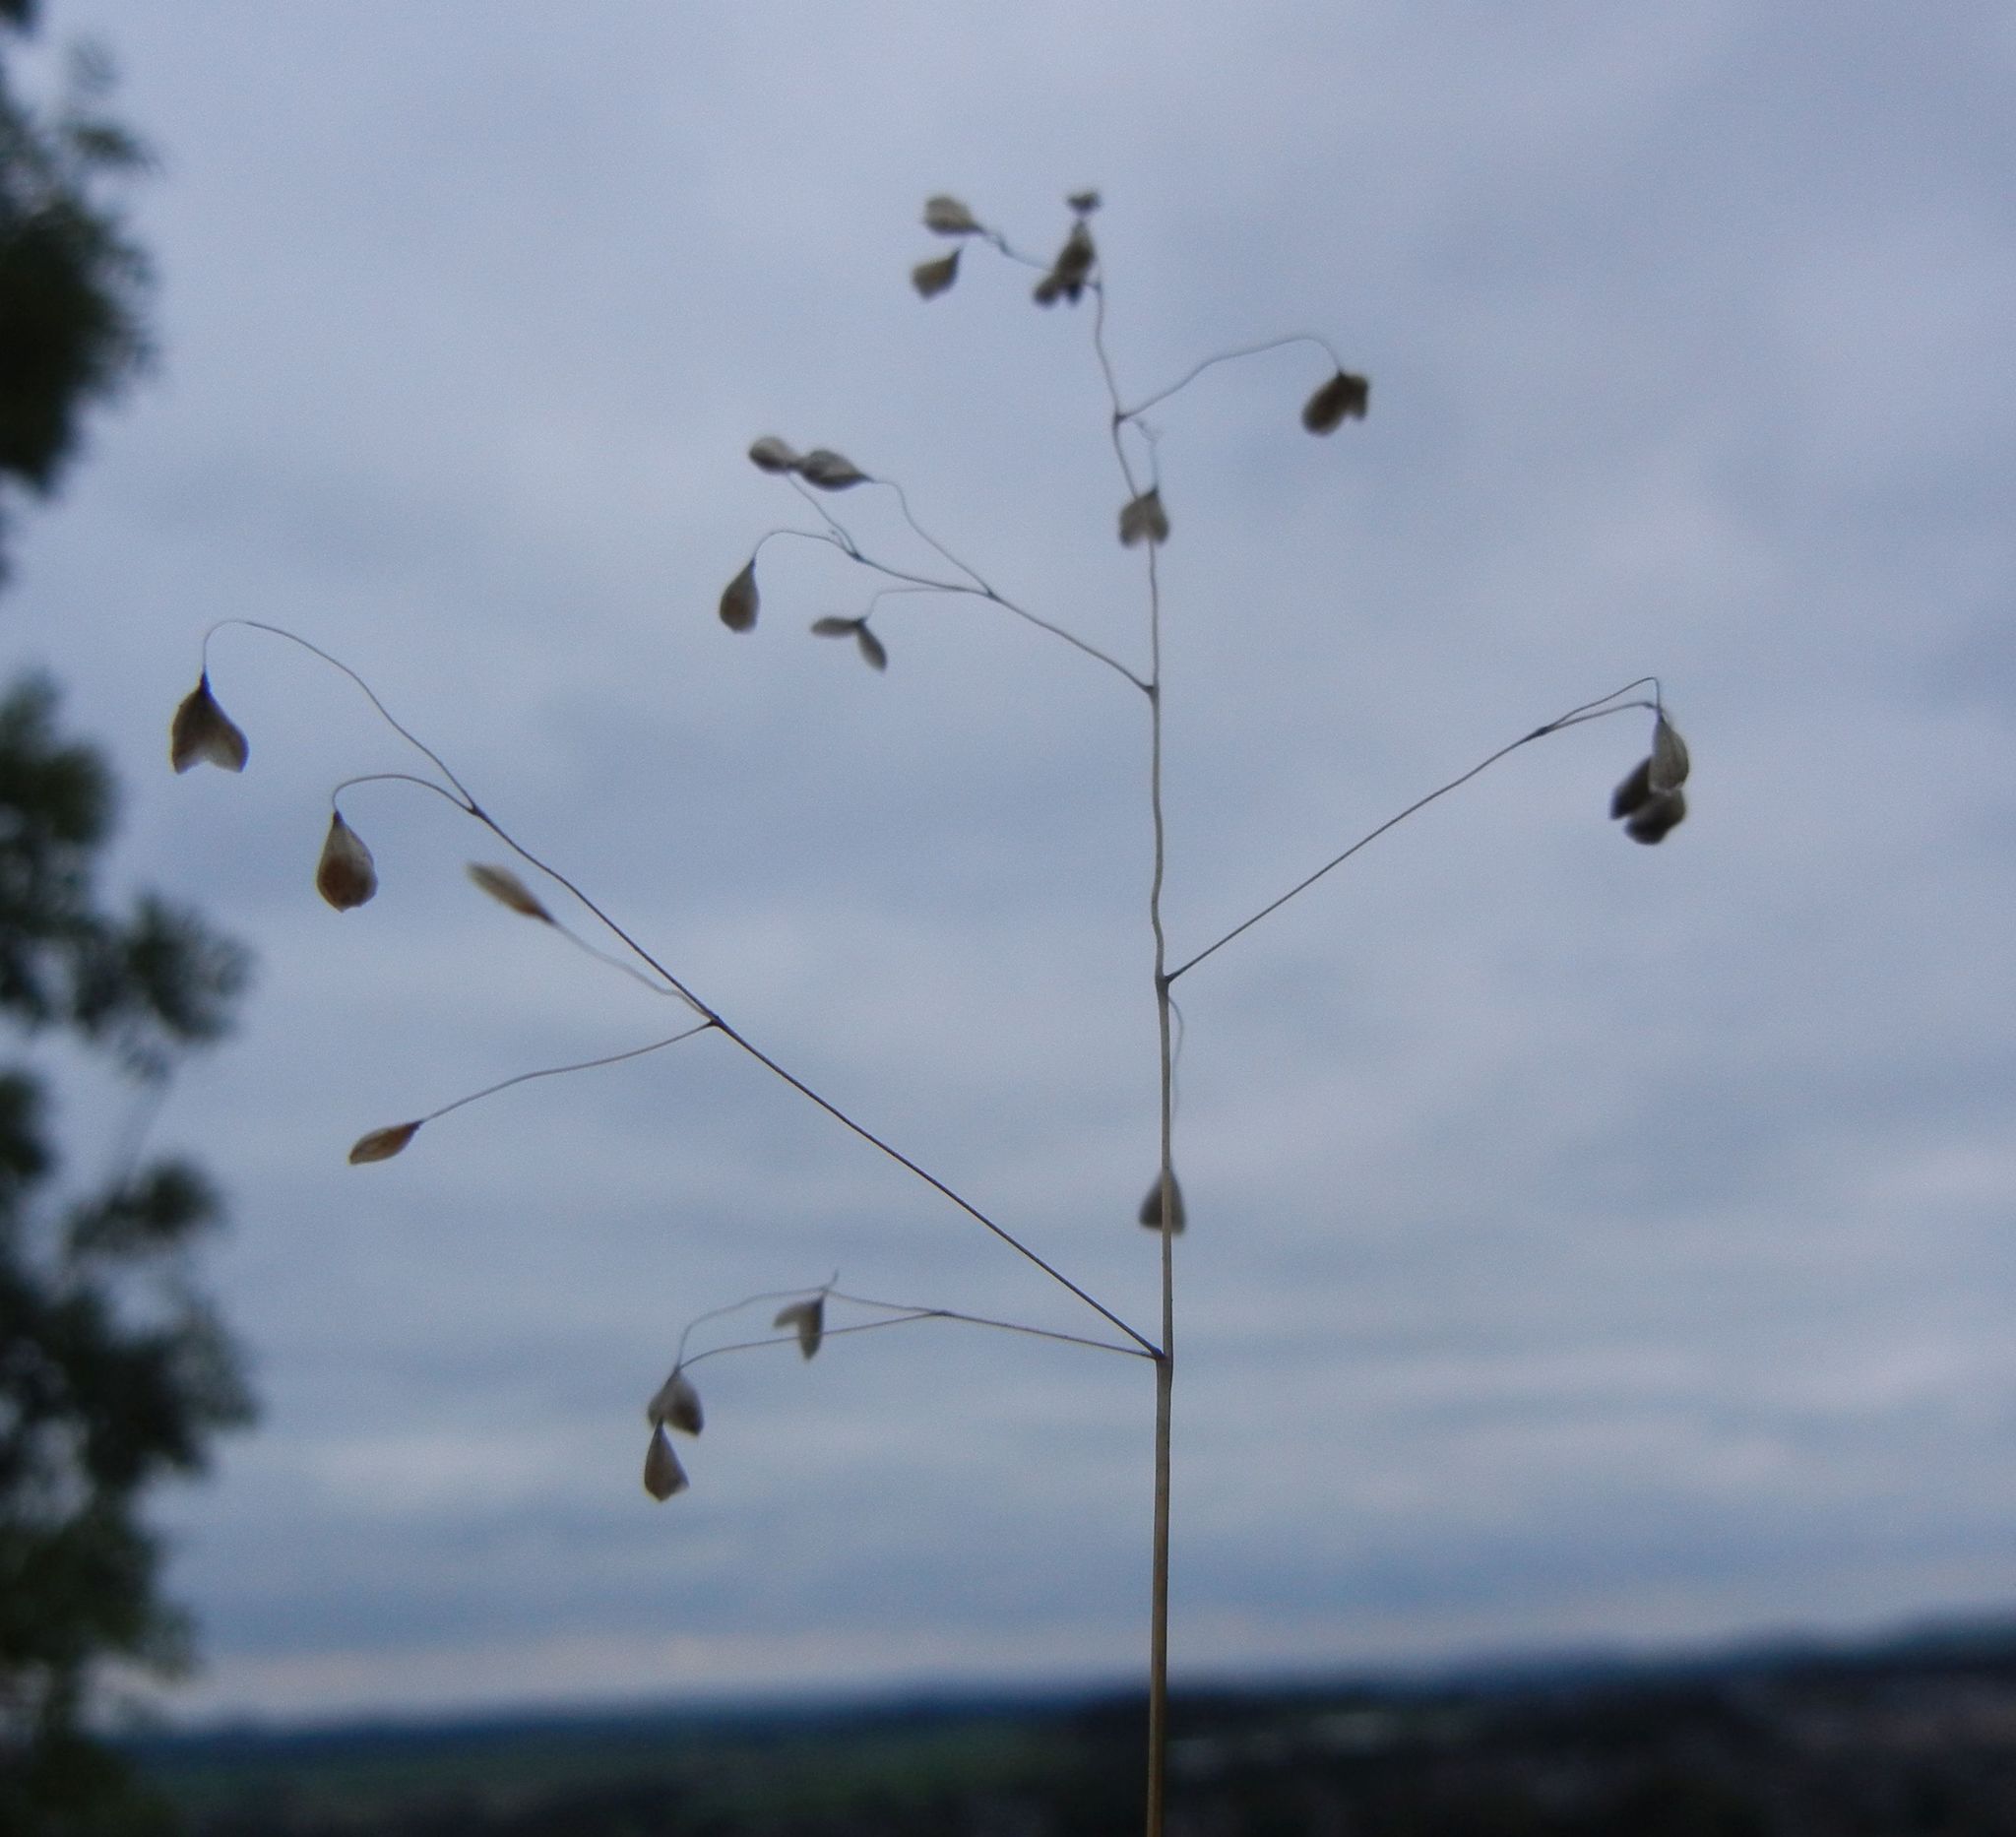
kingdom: Plantae
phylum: Tracheophyta
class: Liliopsida
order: Poales
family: Poaceae
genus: Briza
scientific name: Briza media
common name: Quaking grass
